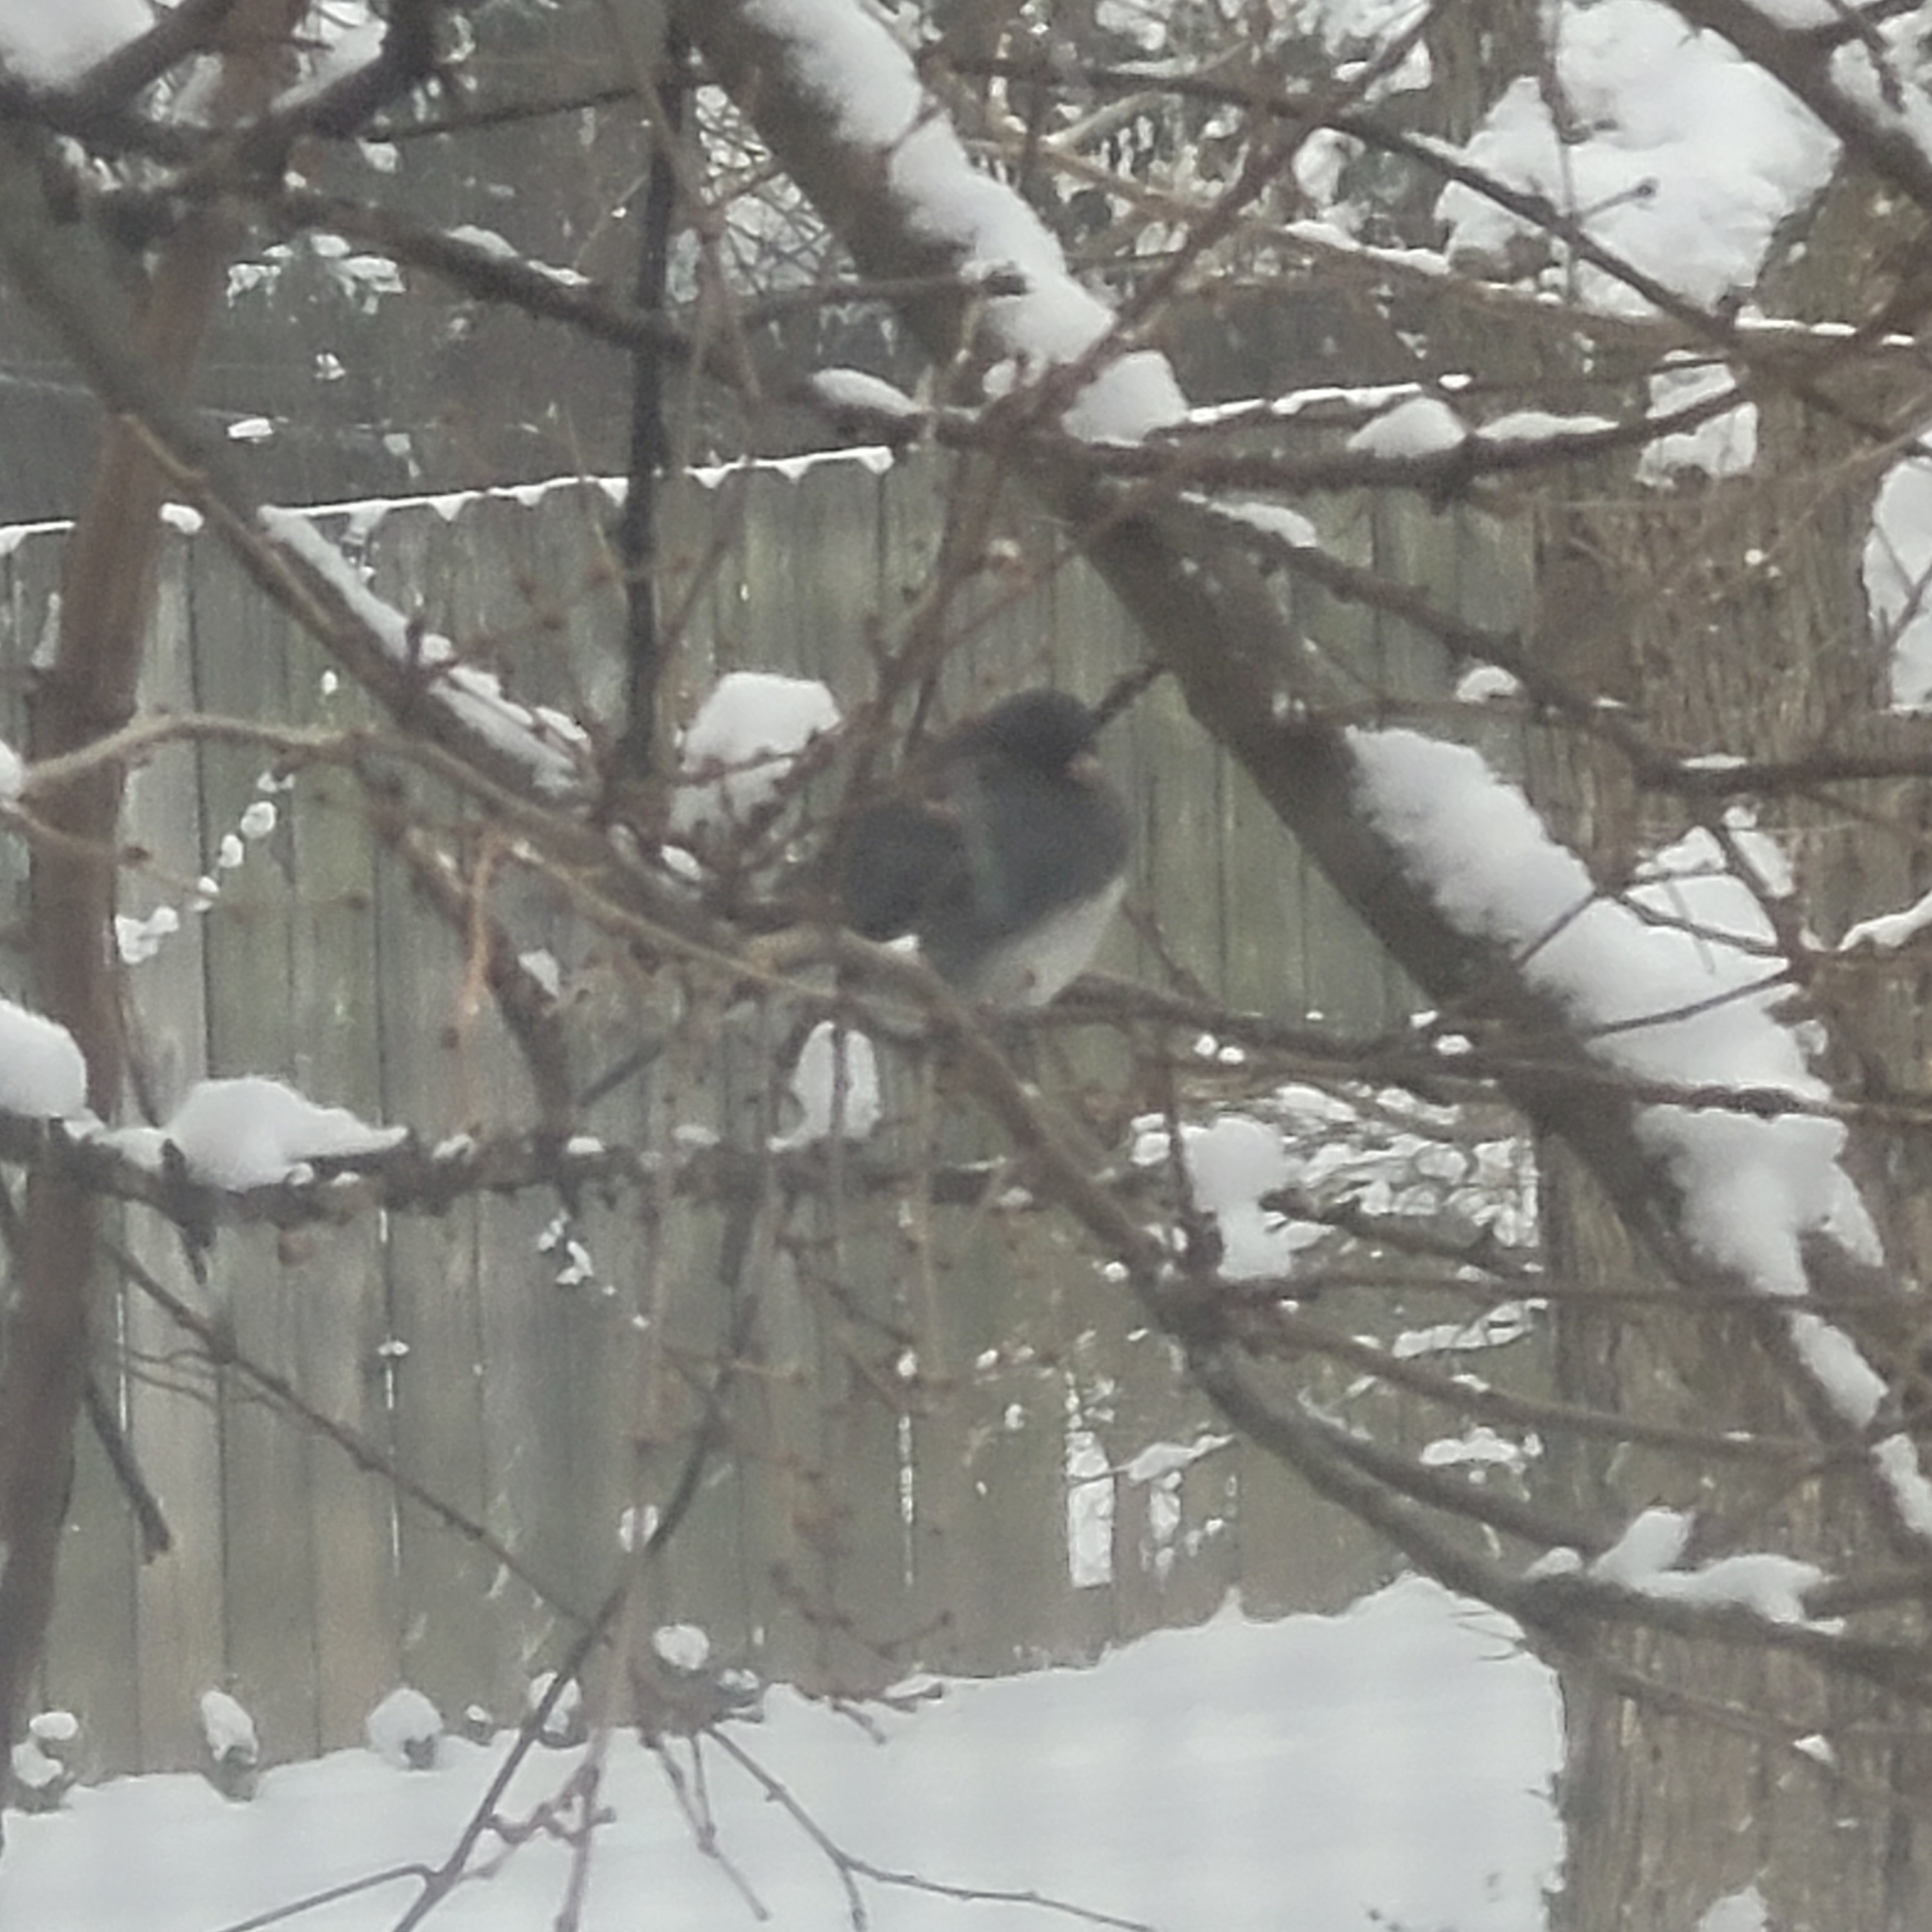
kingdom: Animalia
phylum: Chordata
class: Aves
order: Passeriformes
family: Passerellidae
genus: Junco
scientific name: Junco hyemalis
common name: Dark-eyed junco
